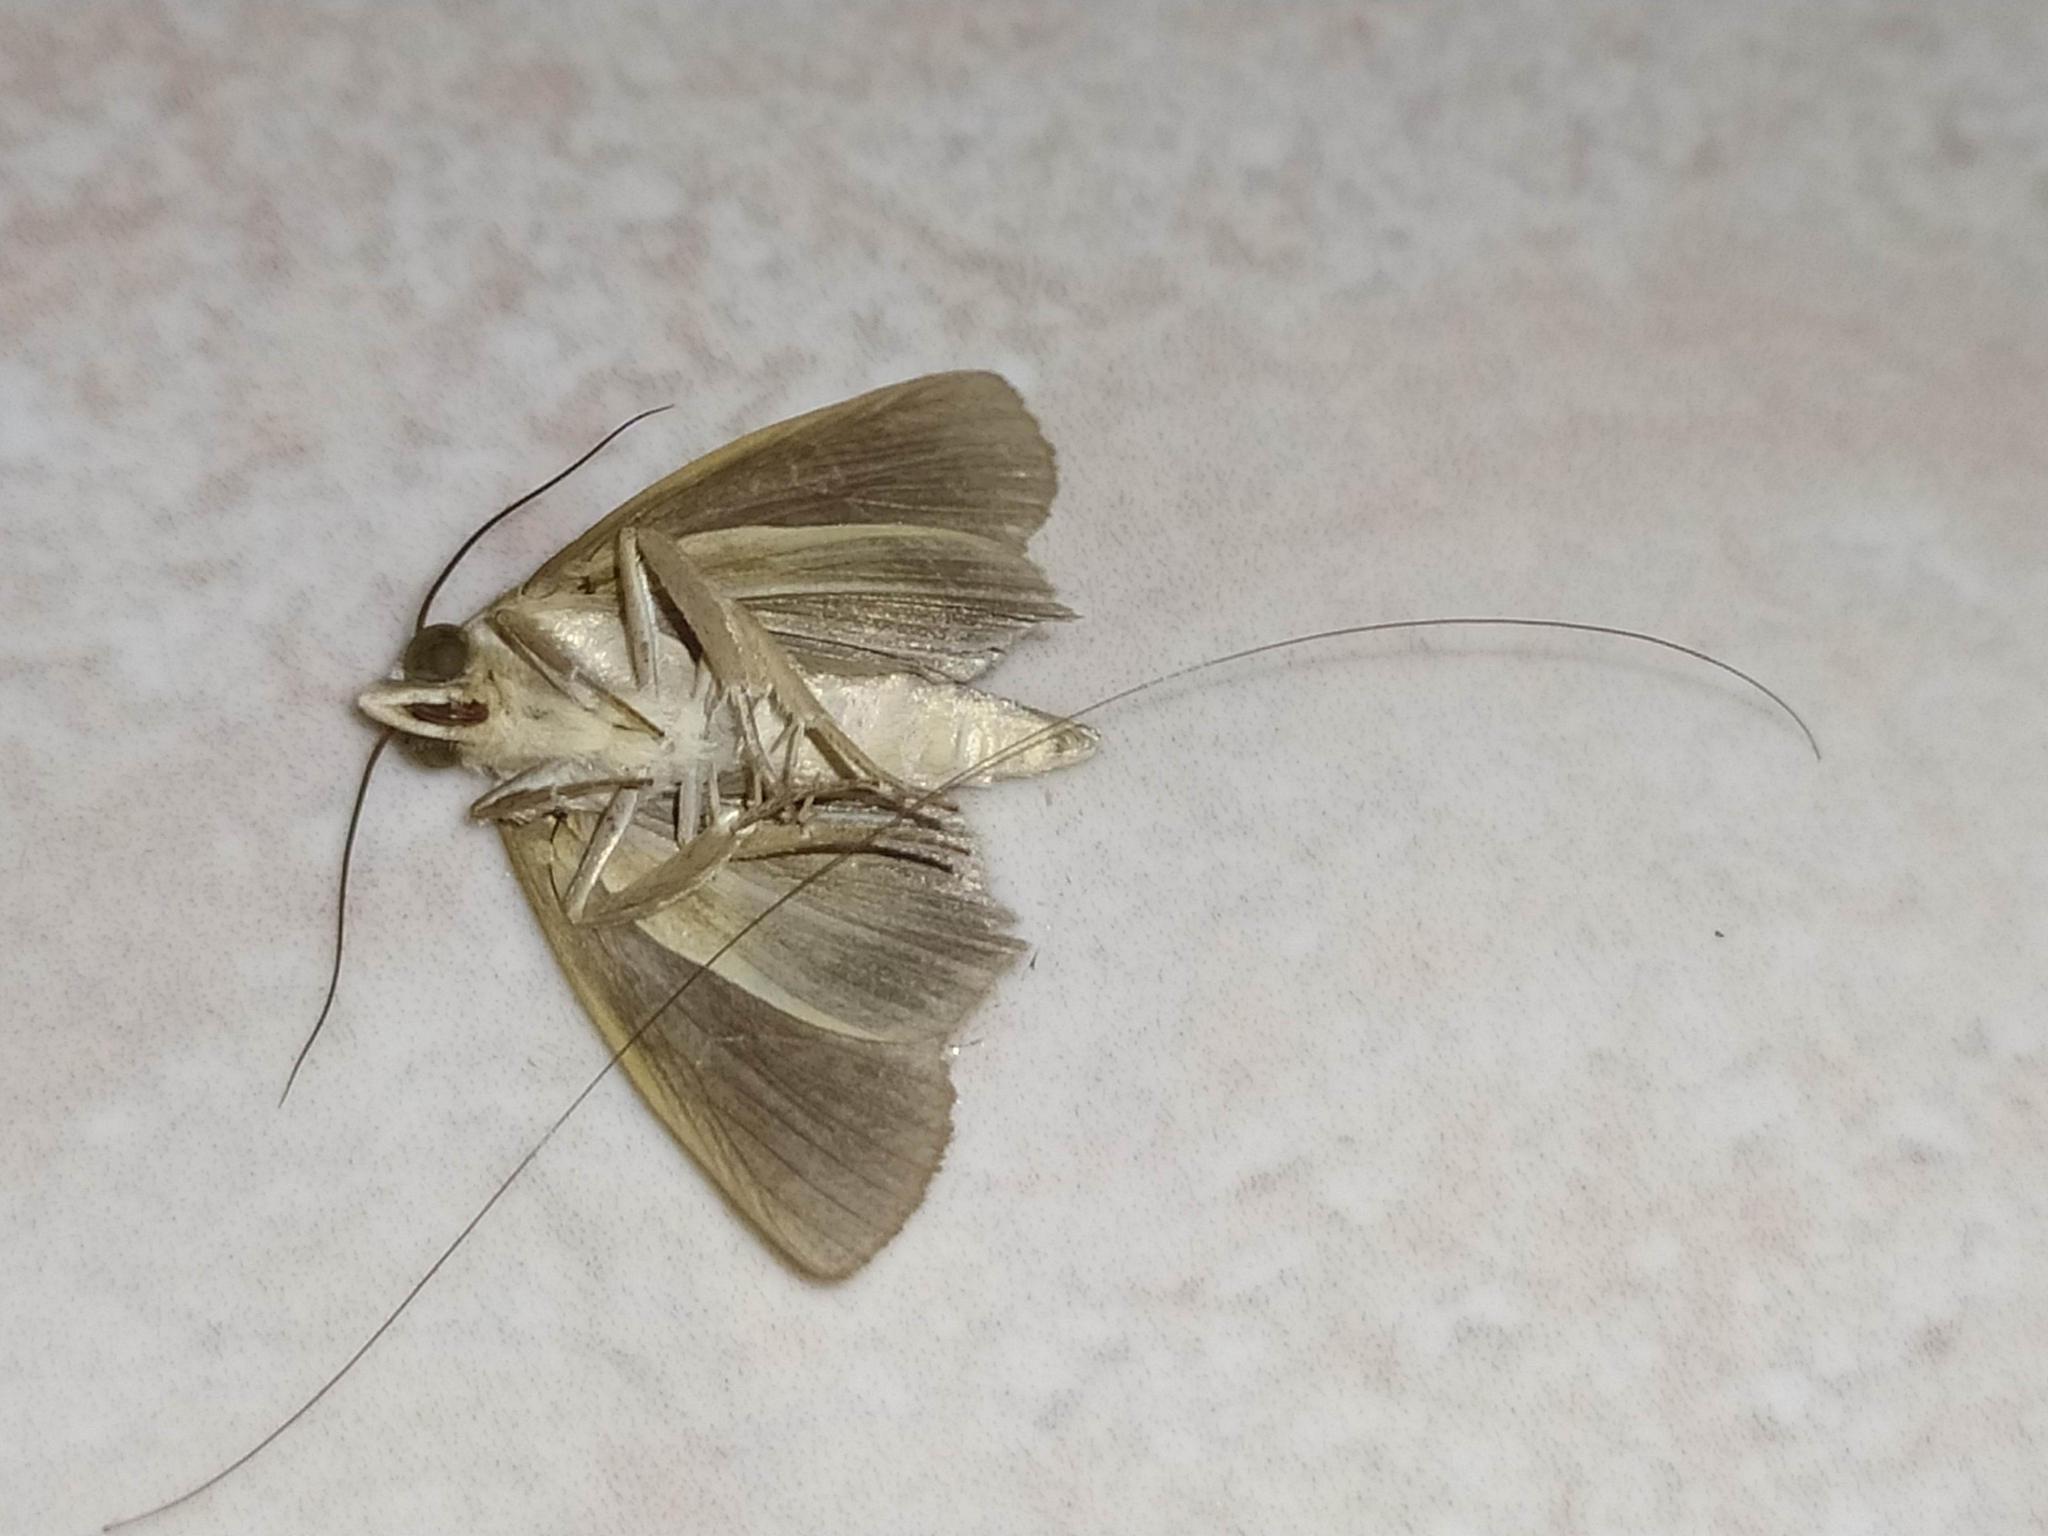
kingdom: Animalia
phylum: Arthropoda
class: Insecta
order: Lepidoptera
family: Erebidae
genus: Gonodonta
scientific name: Gonodonta immacula
